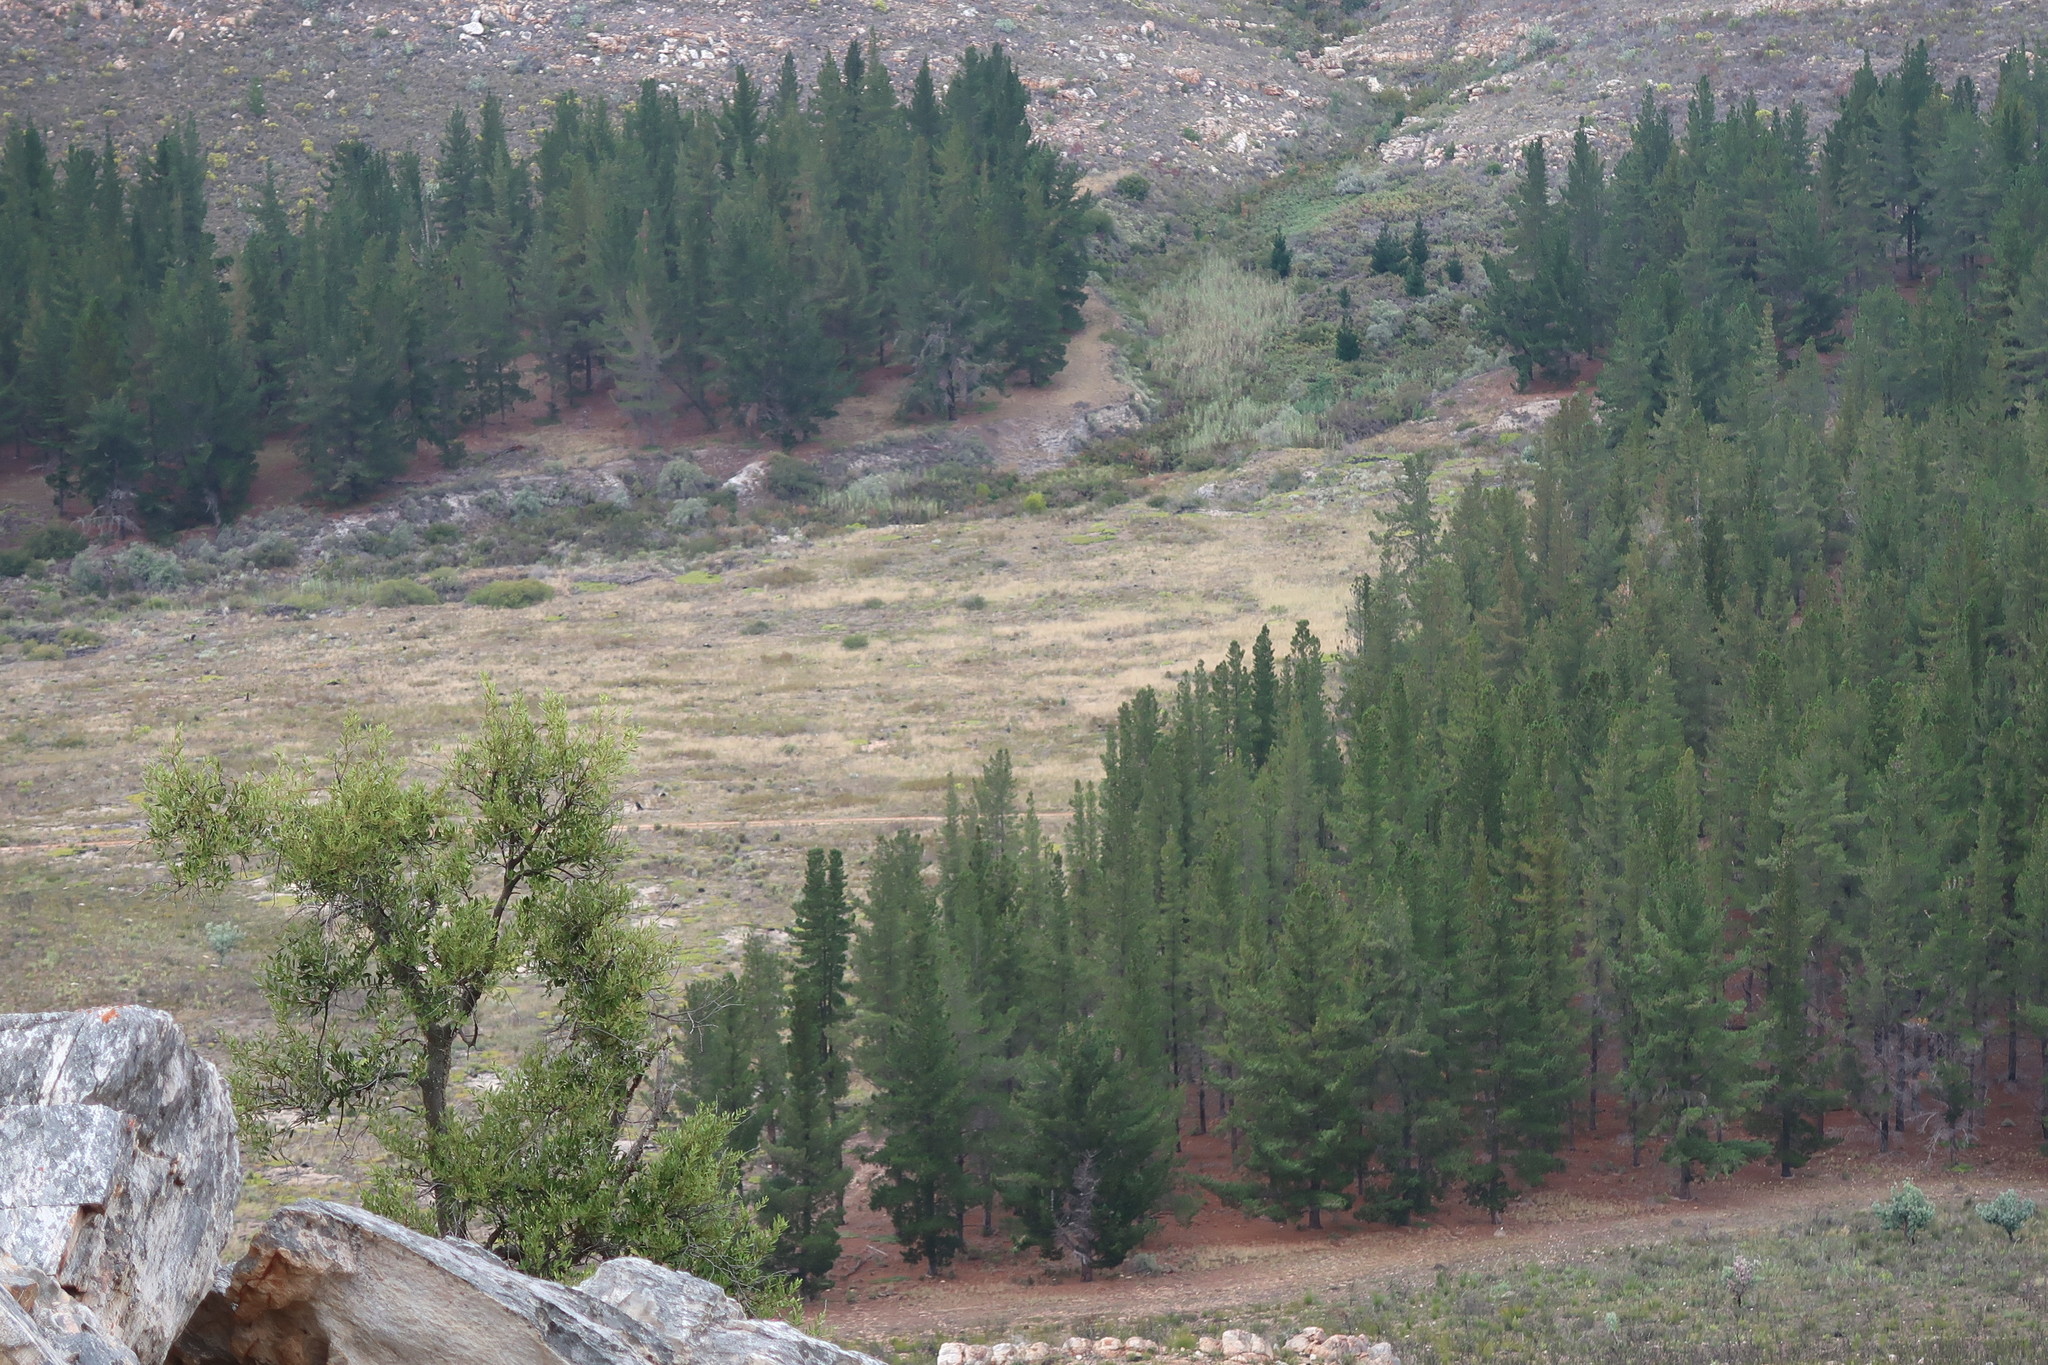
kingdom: Plantae
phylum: Tracheophyta
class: Magnoliopsida
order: Celastrales
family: Celastraceae
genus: Gymnosporia
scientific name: Gymnosporia laurina
